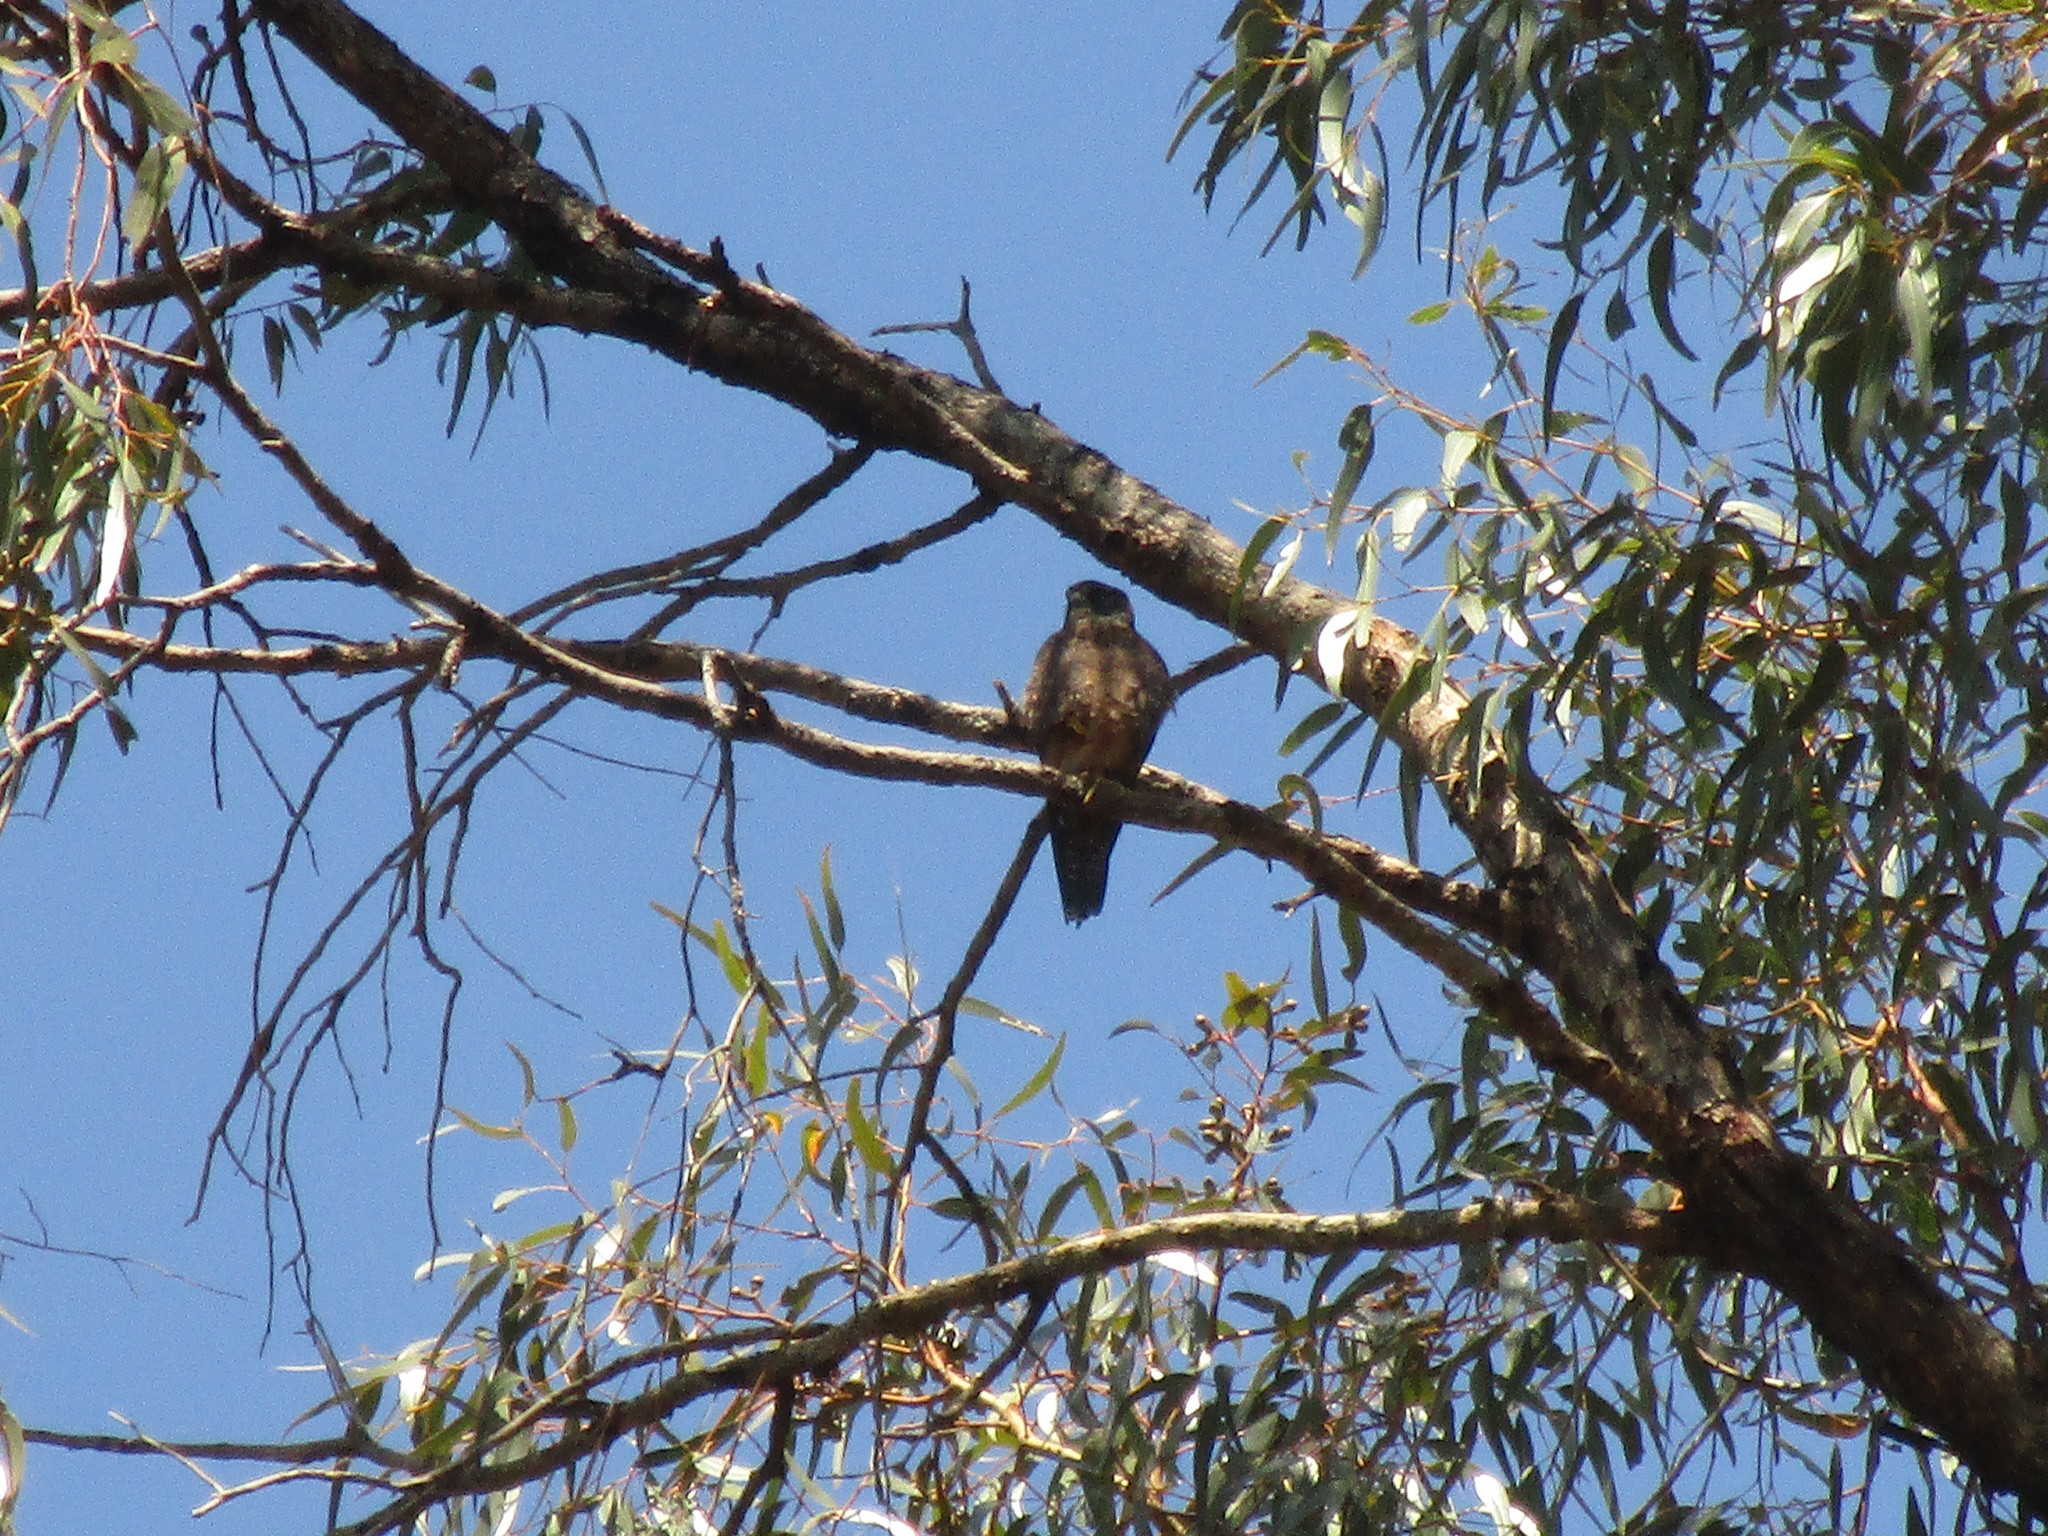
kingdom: Animalia
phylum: Chordata
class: Aves
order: Falconiformes
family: Falconidae
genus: Falco
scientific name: Falco longipennis
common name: Australian hobby
